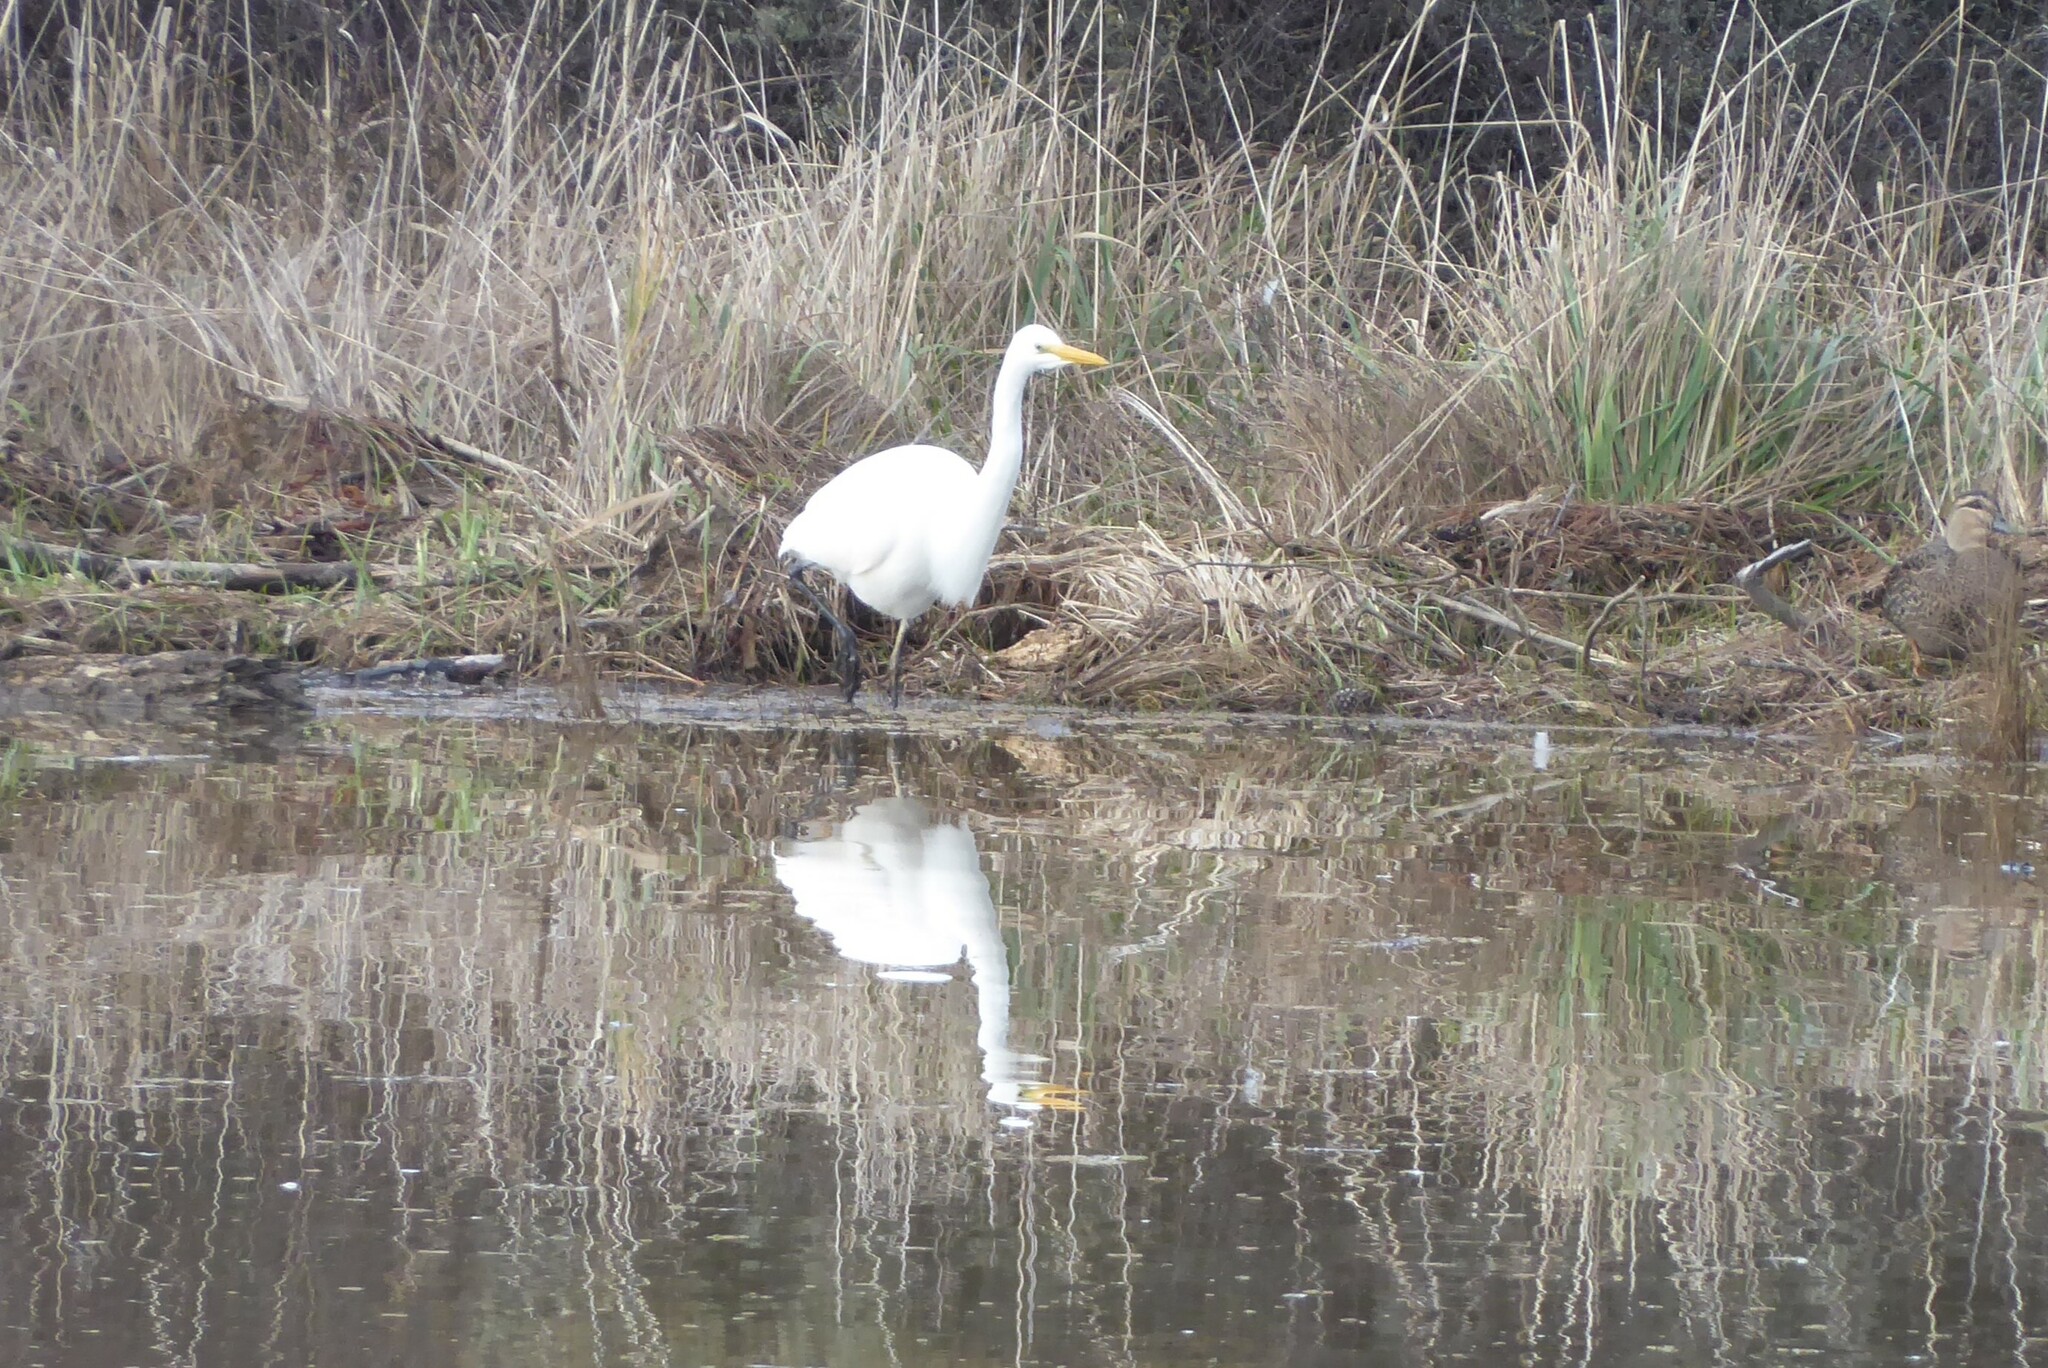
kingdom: Animalia
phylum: Chordata
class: Aves
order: Pelecaniformes
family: Ardeidae
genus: Ardea
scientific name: Ardea modesta
